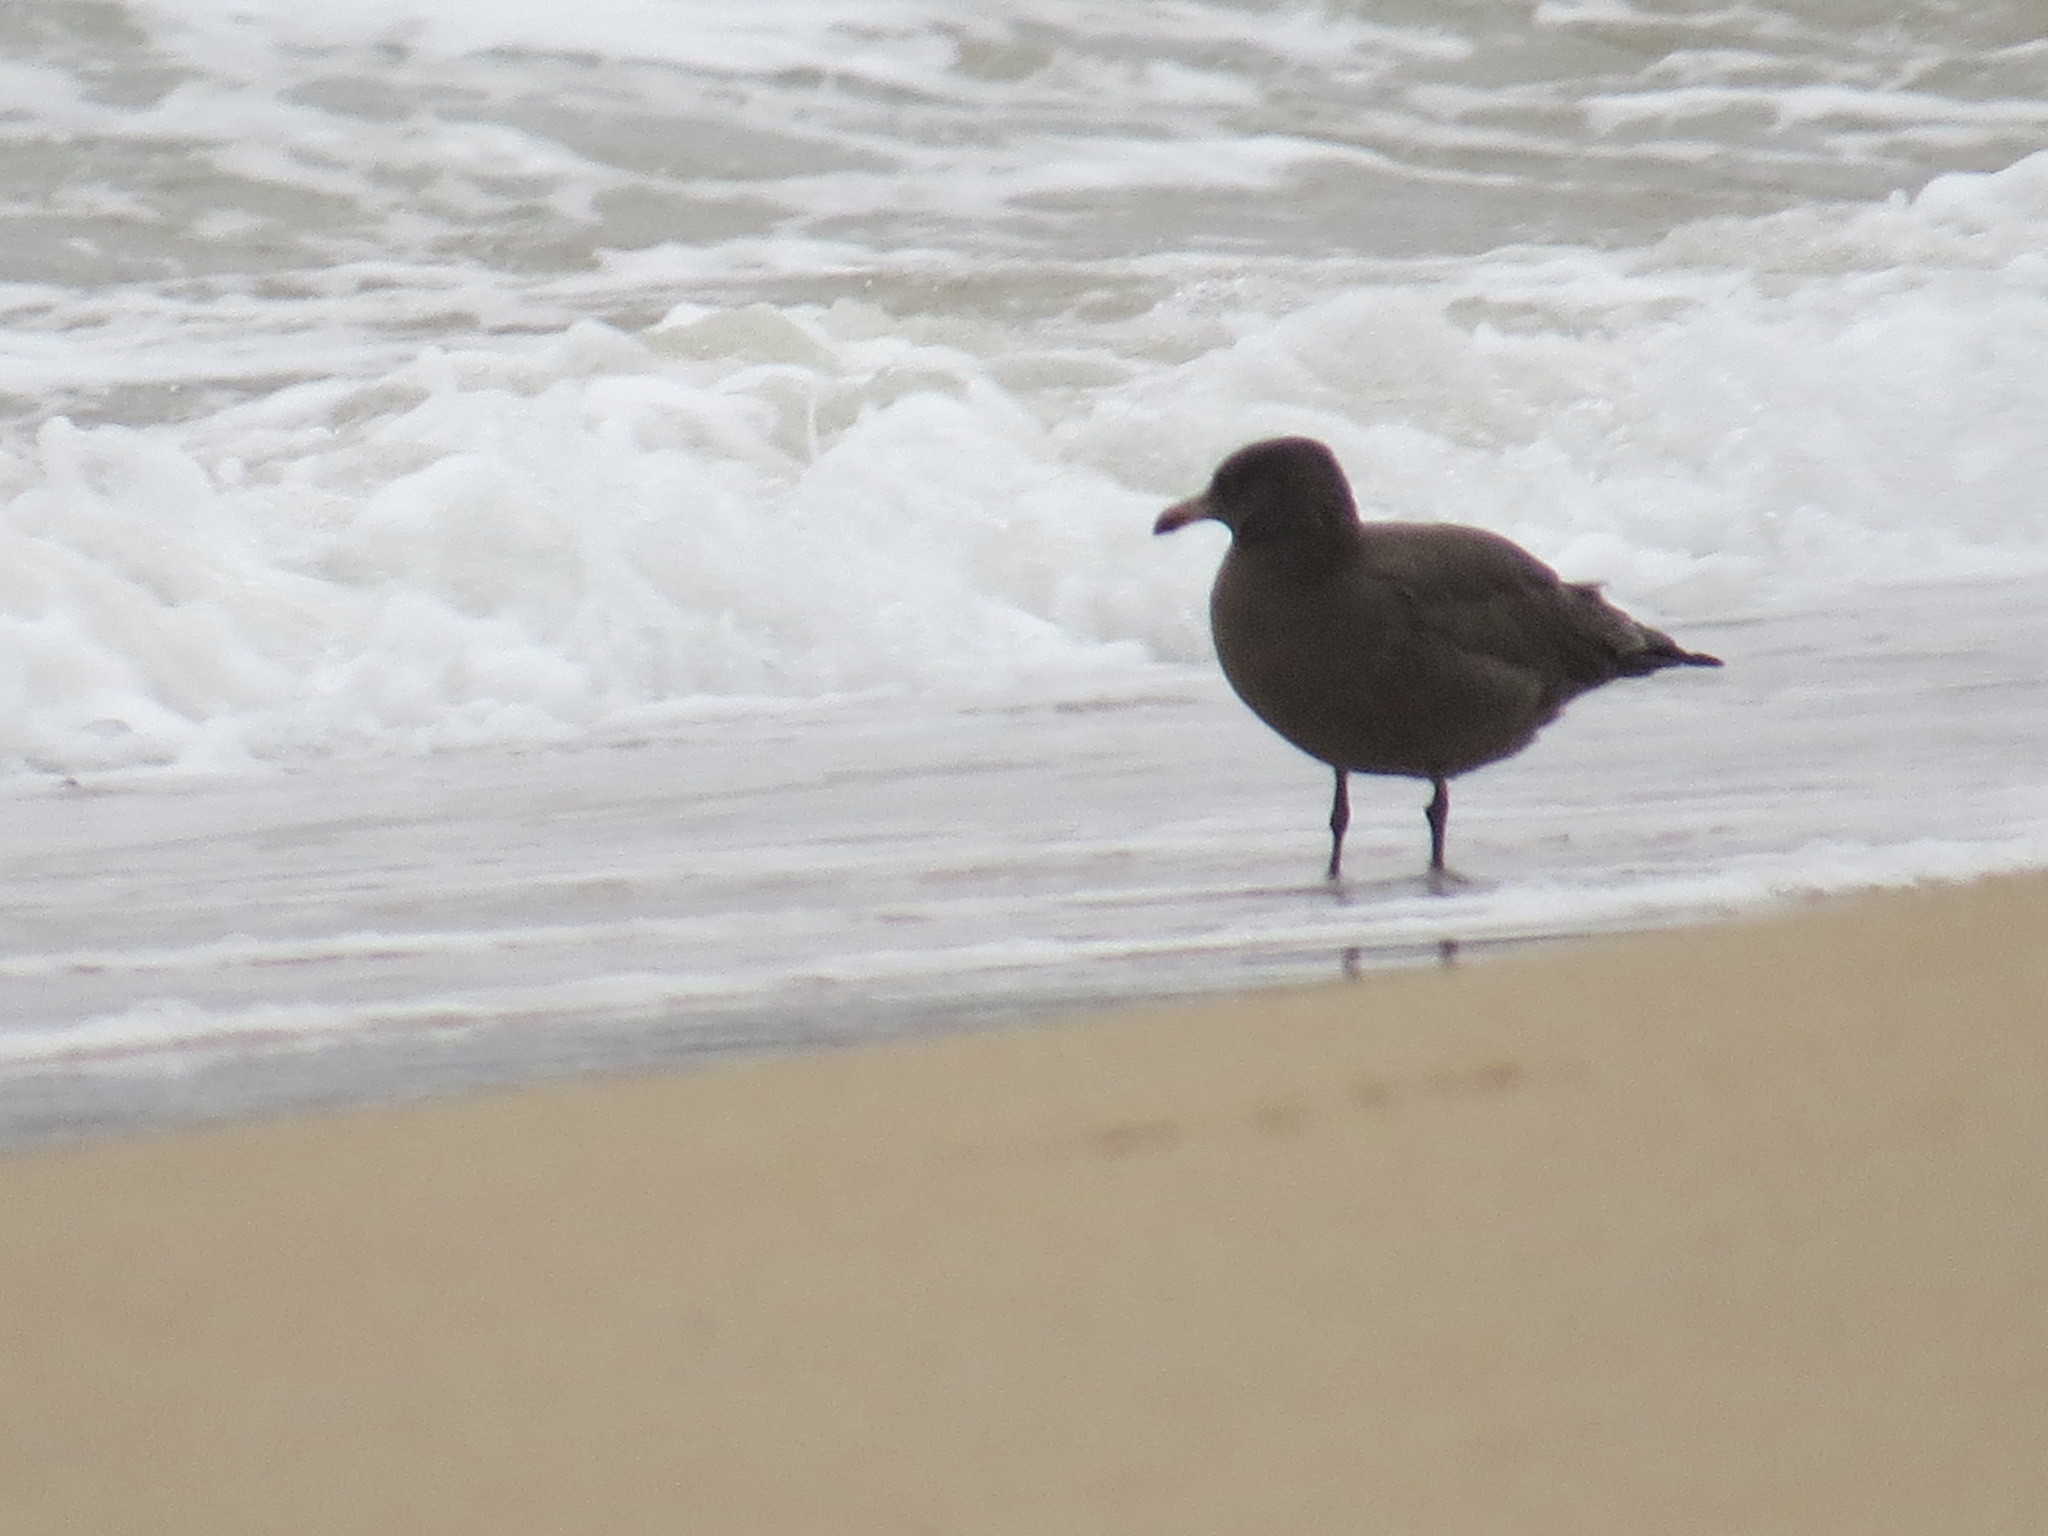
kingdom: Animalia
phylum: Chordata
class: Aves
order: Charadriiformes
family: Laridae
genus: Larus
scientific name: Larus heermanni
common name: Heermann's gull
